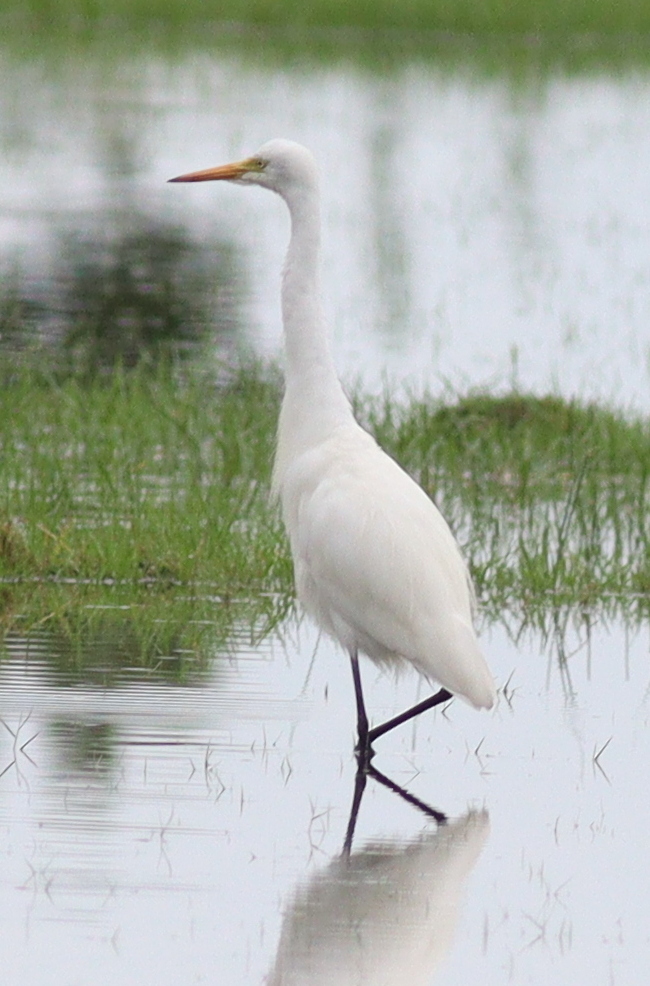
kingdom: Animalia
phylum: Chordata
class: Aves
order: Pelecaniformes
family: Ardeidae
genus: Egretta
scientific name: Egretta intermedia
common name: Intermediate egret
